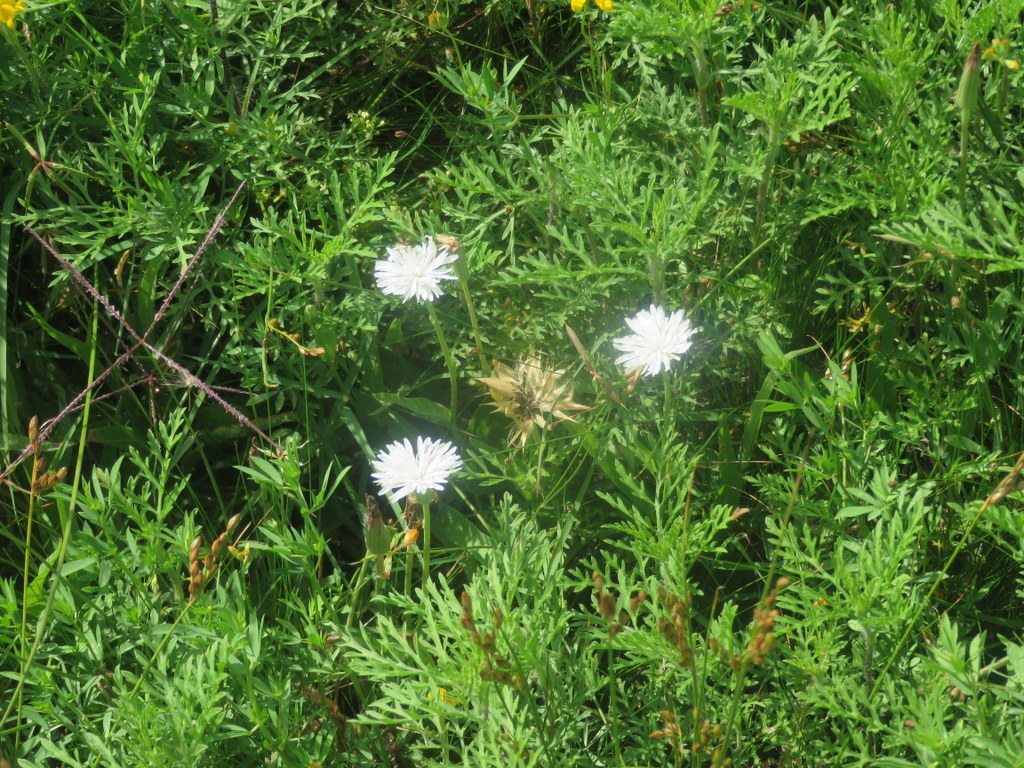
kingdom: Plantae
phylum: Tracheophyta
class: Magnoliopsida
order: Asterales
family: Asteraceae
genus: Picrosia
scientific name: Picrosia longifolia
